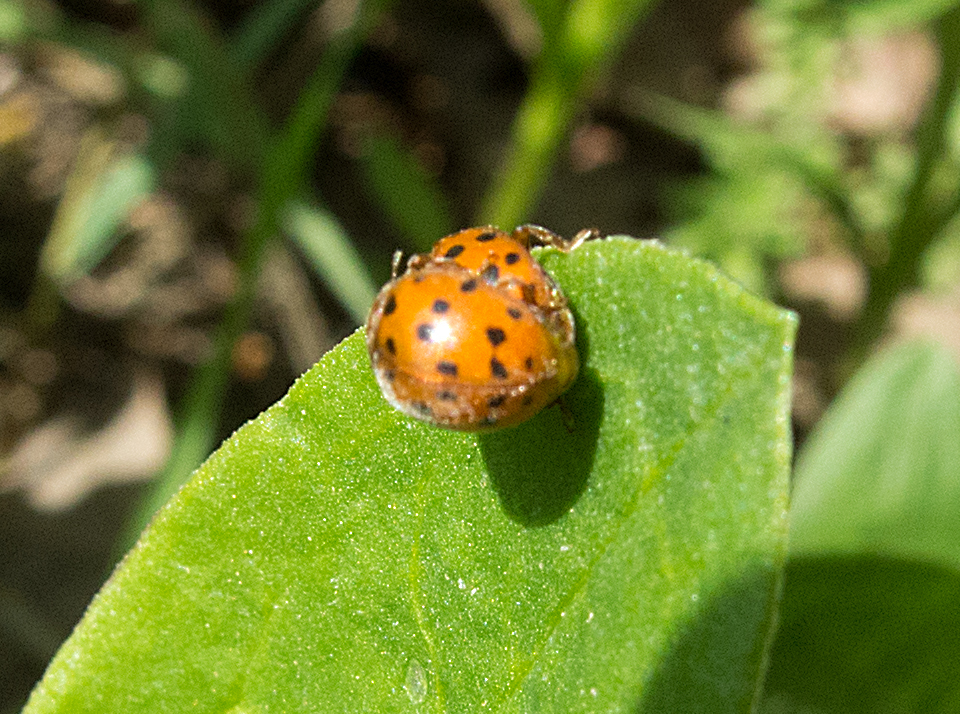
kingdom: Animalia
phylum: Arthropoda
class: Insecta
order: Coleoptera
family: Coccinellidae
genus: Subcoccinella
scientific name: Subcoccinella vigintiquatuorpunctata
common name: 24-spot ladybird
